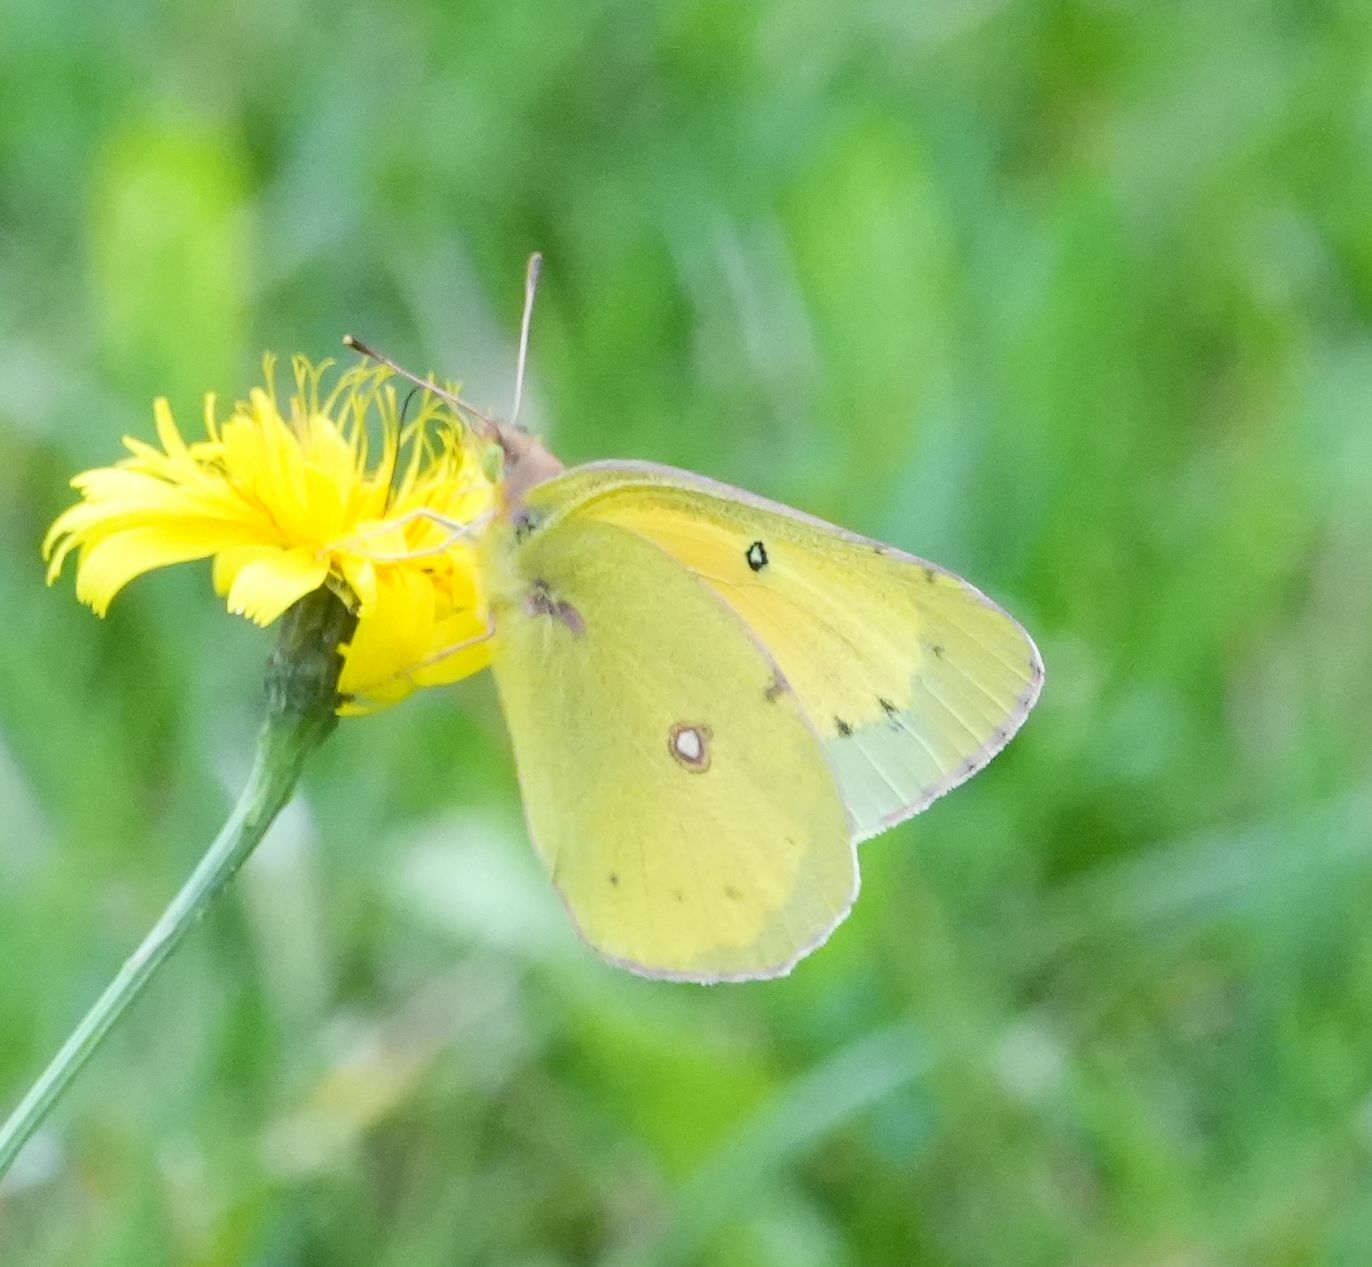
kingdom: Animalia
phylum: Arthropoda
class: Insecta
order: Lepidoptera
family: Pieridae
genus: Colias
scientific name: Colias eurytheme
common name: Alfalfa butterfly
